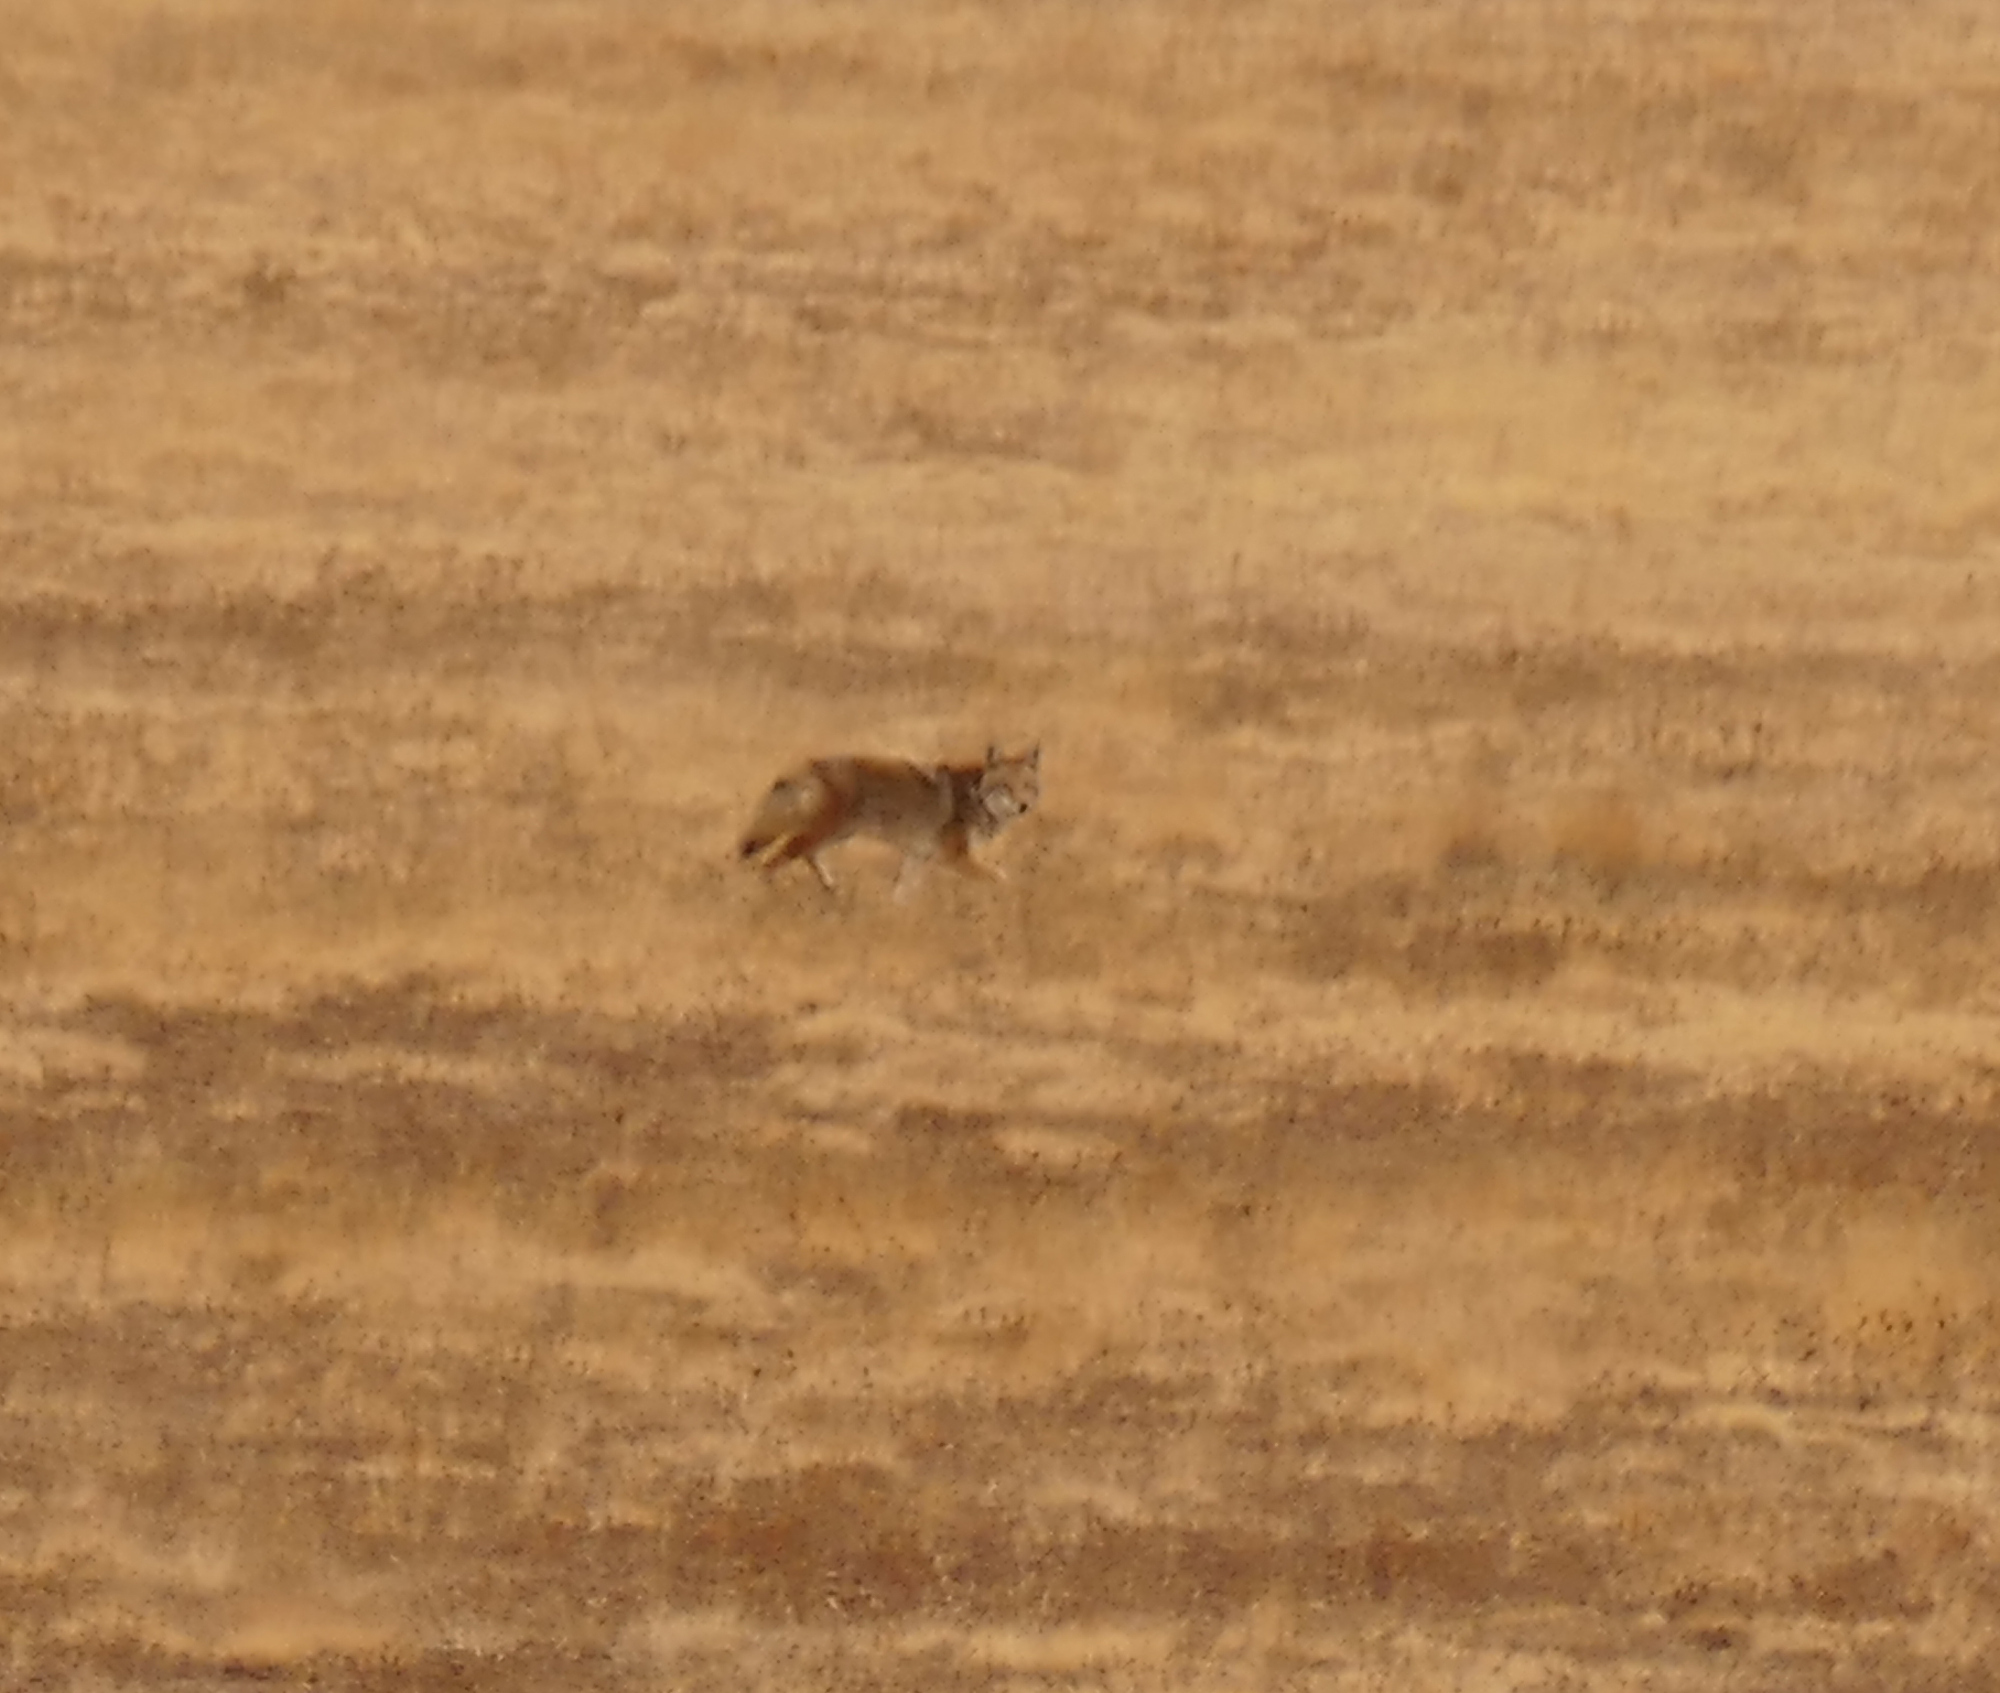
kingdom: Animalia
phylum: Chordata
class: Mammalia
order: Carnivora
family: Canidae
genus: Canis
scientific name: Canis latrans
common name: Coyote
